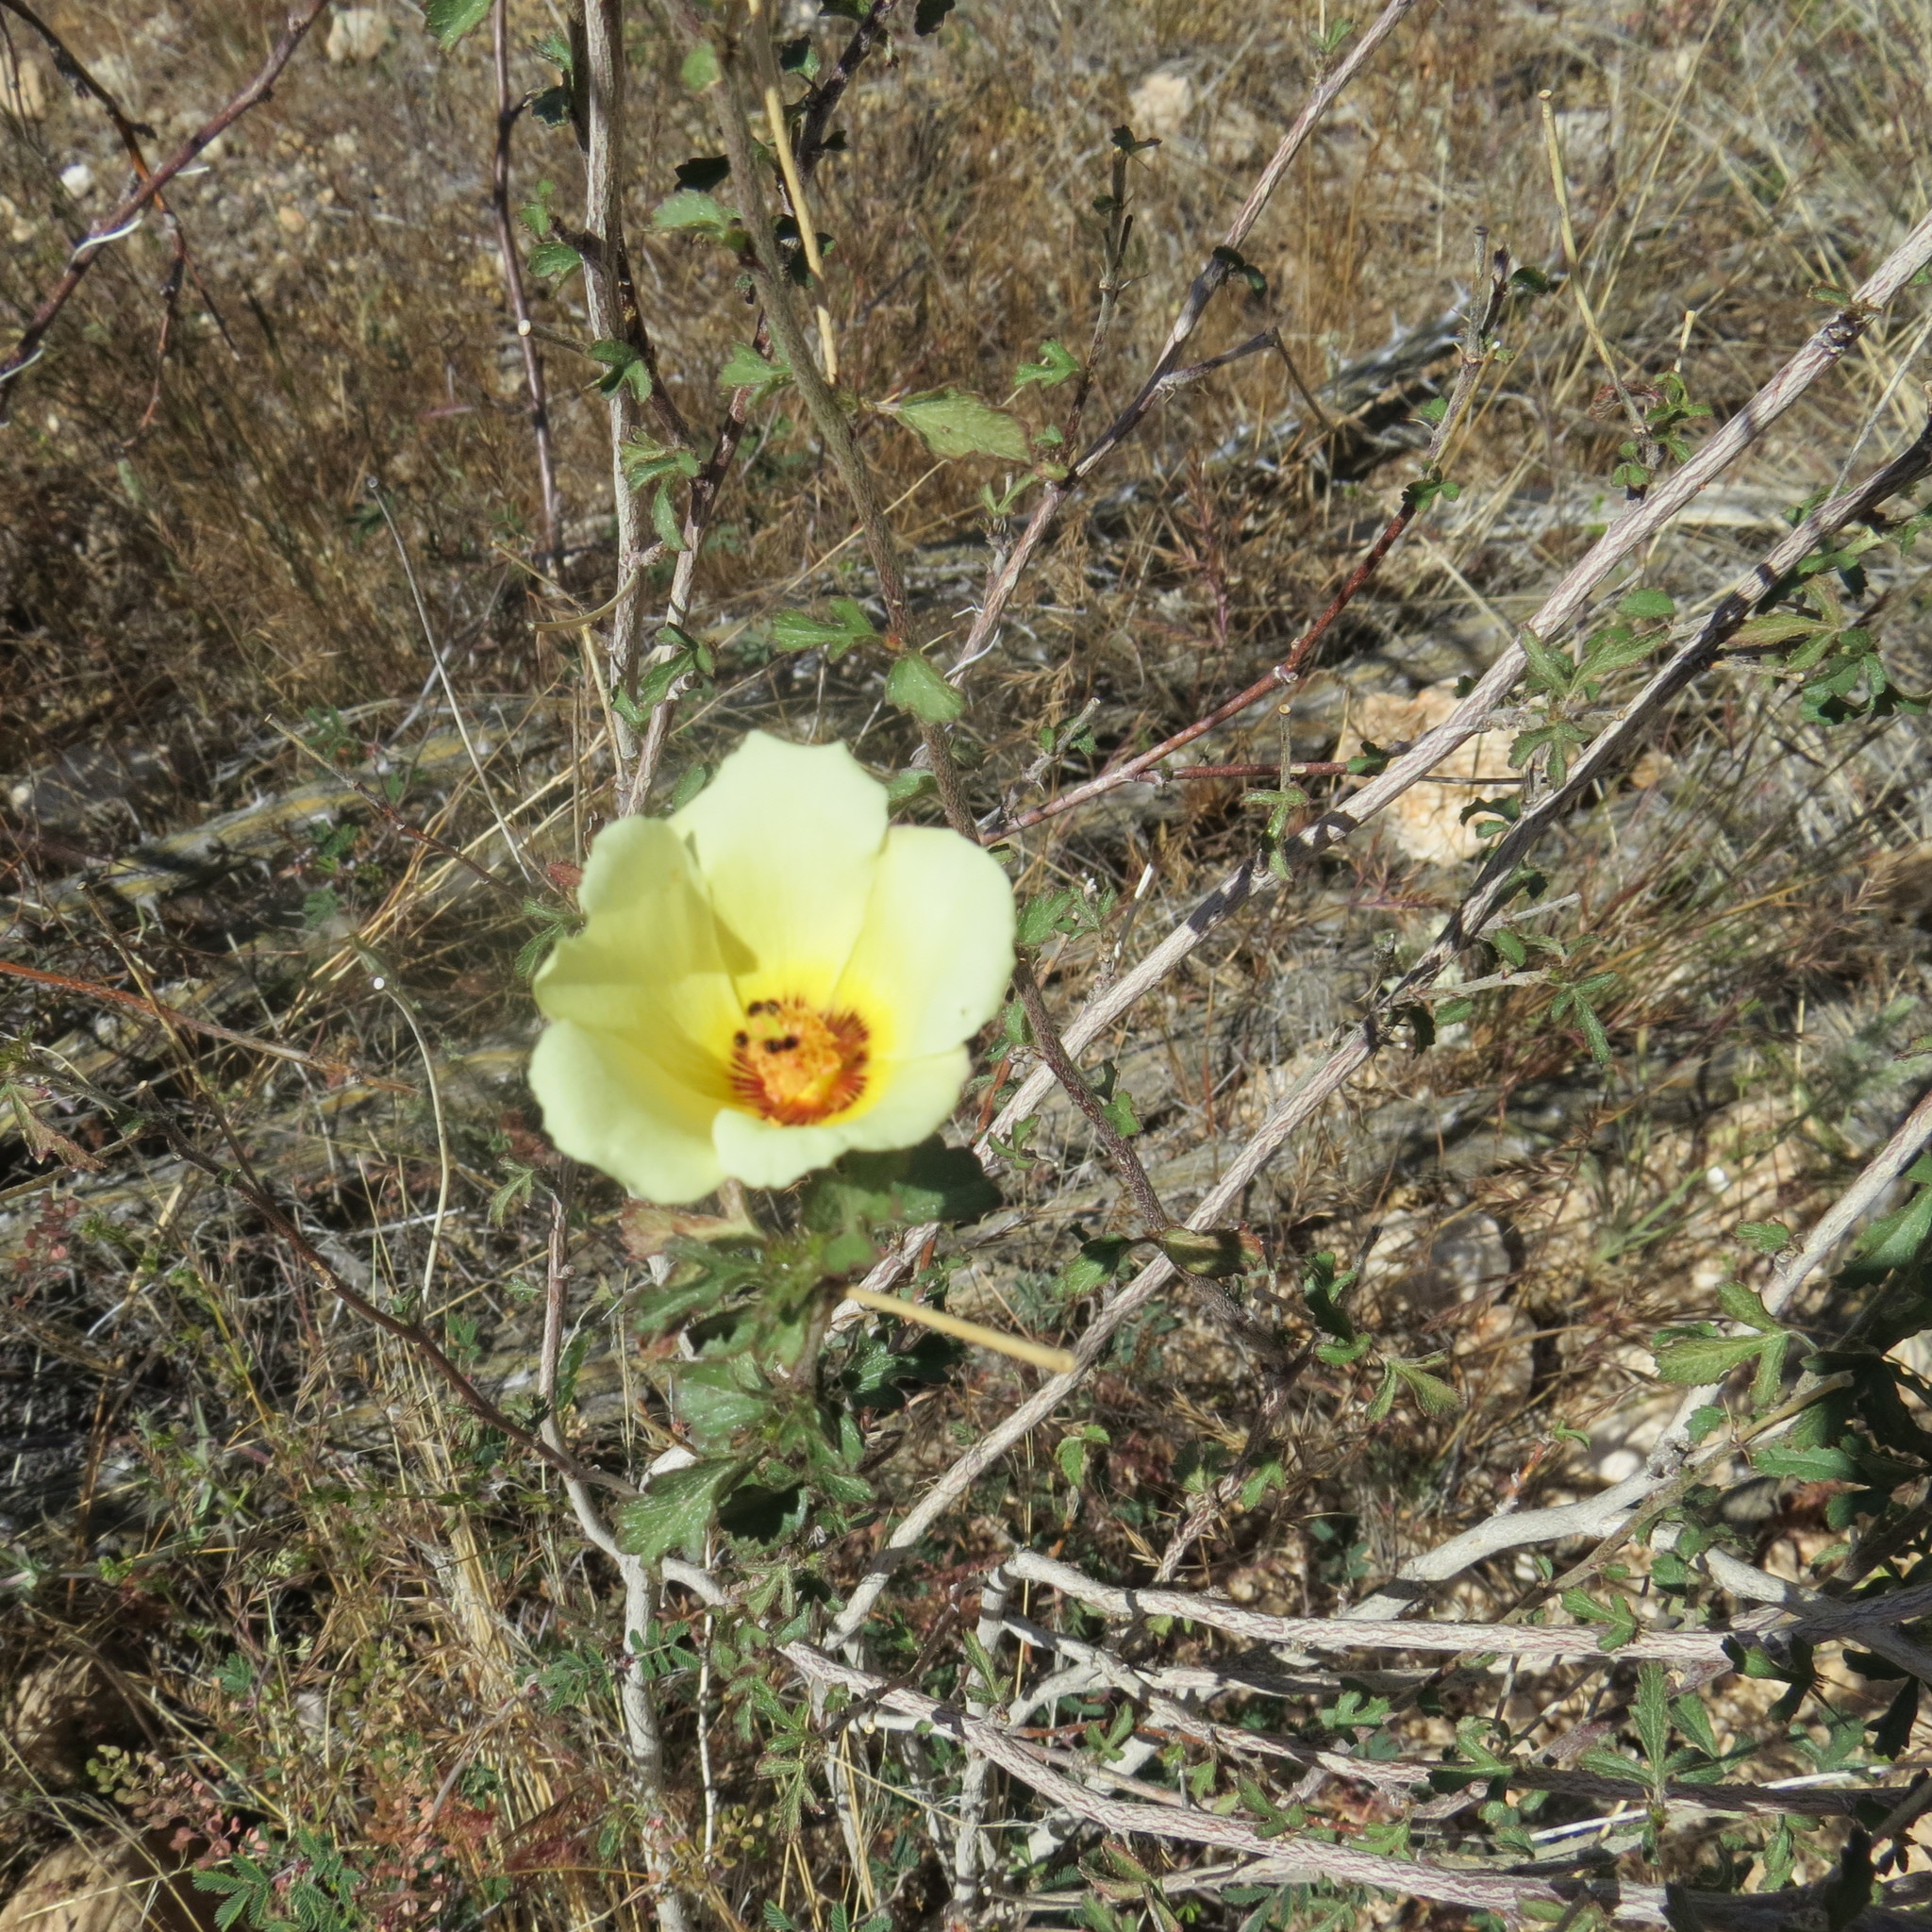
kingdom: Plantae
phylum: Tracheophyta
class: Magnoliopsida
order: Malvales
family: Malvaceae
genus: Hibiscus
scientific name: Hibiscus coulteri
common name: Desert rose-mallow
